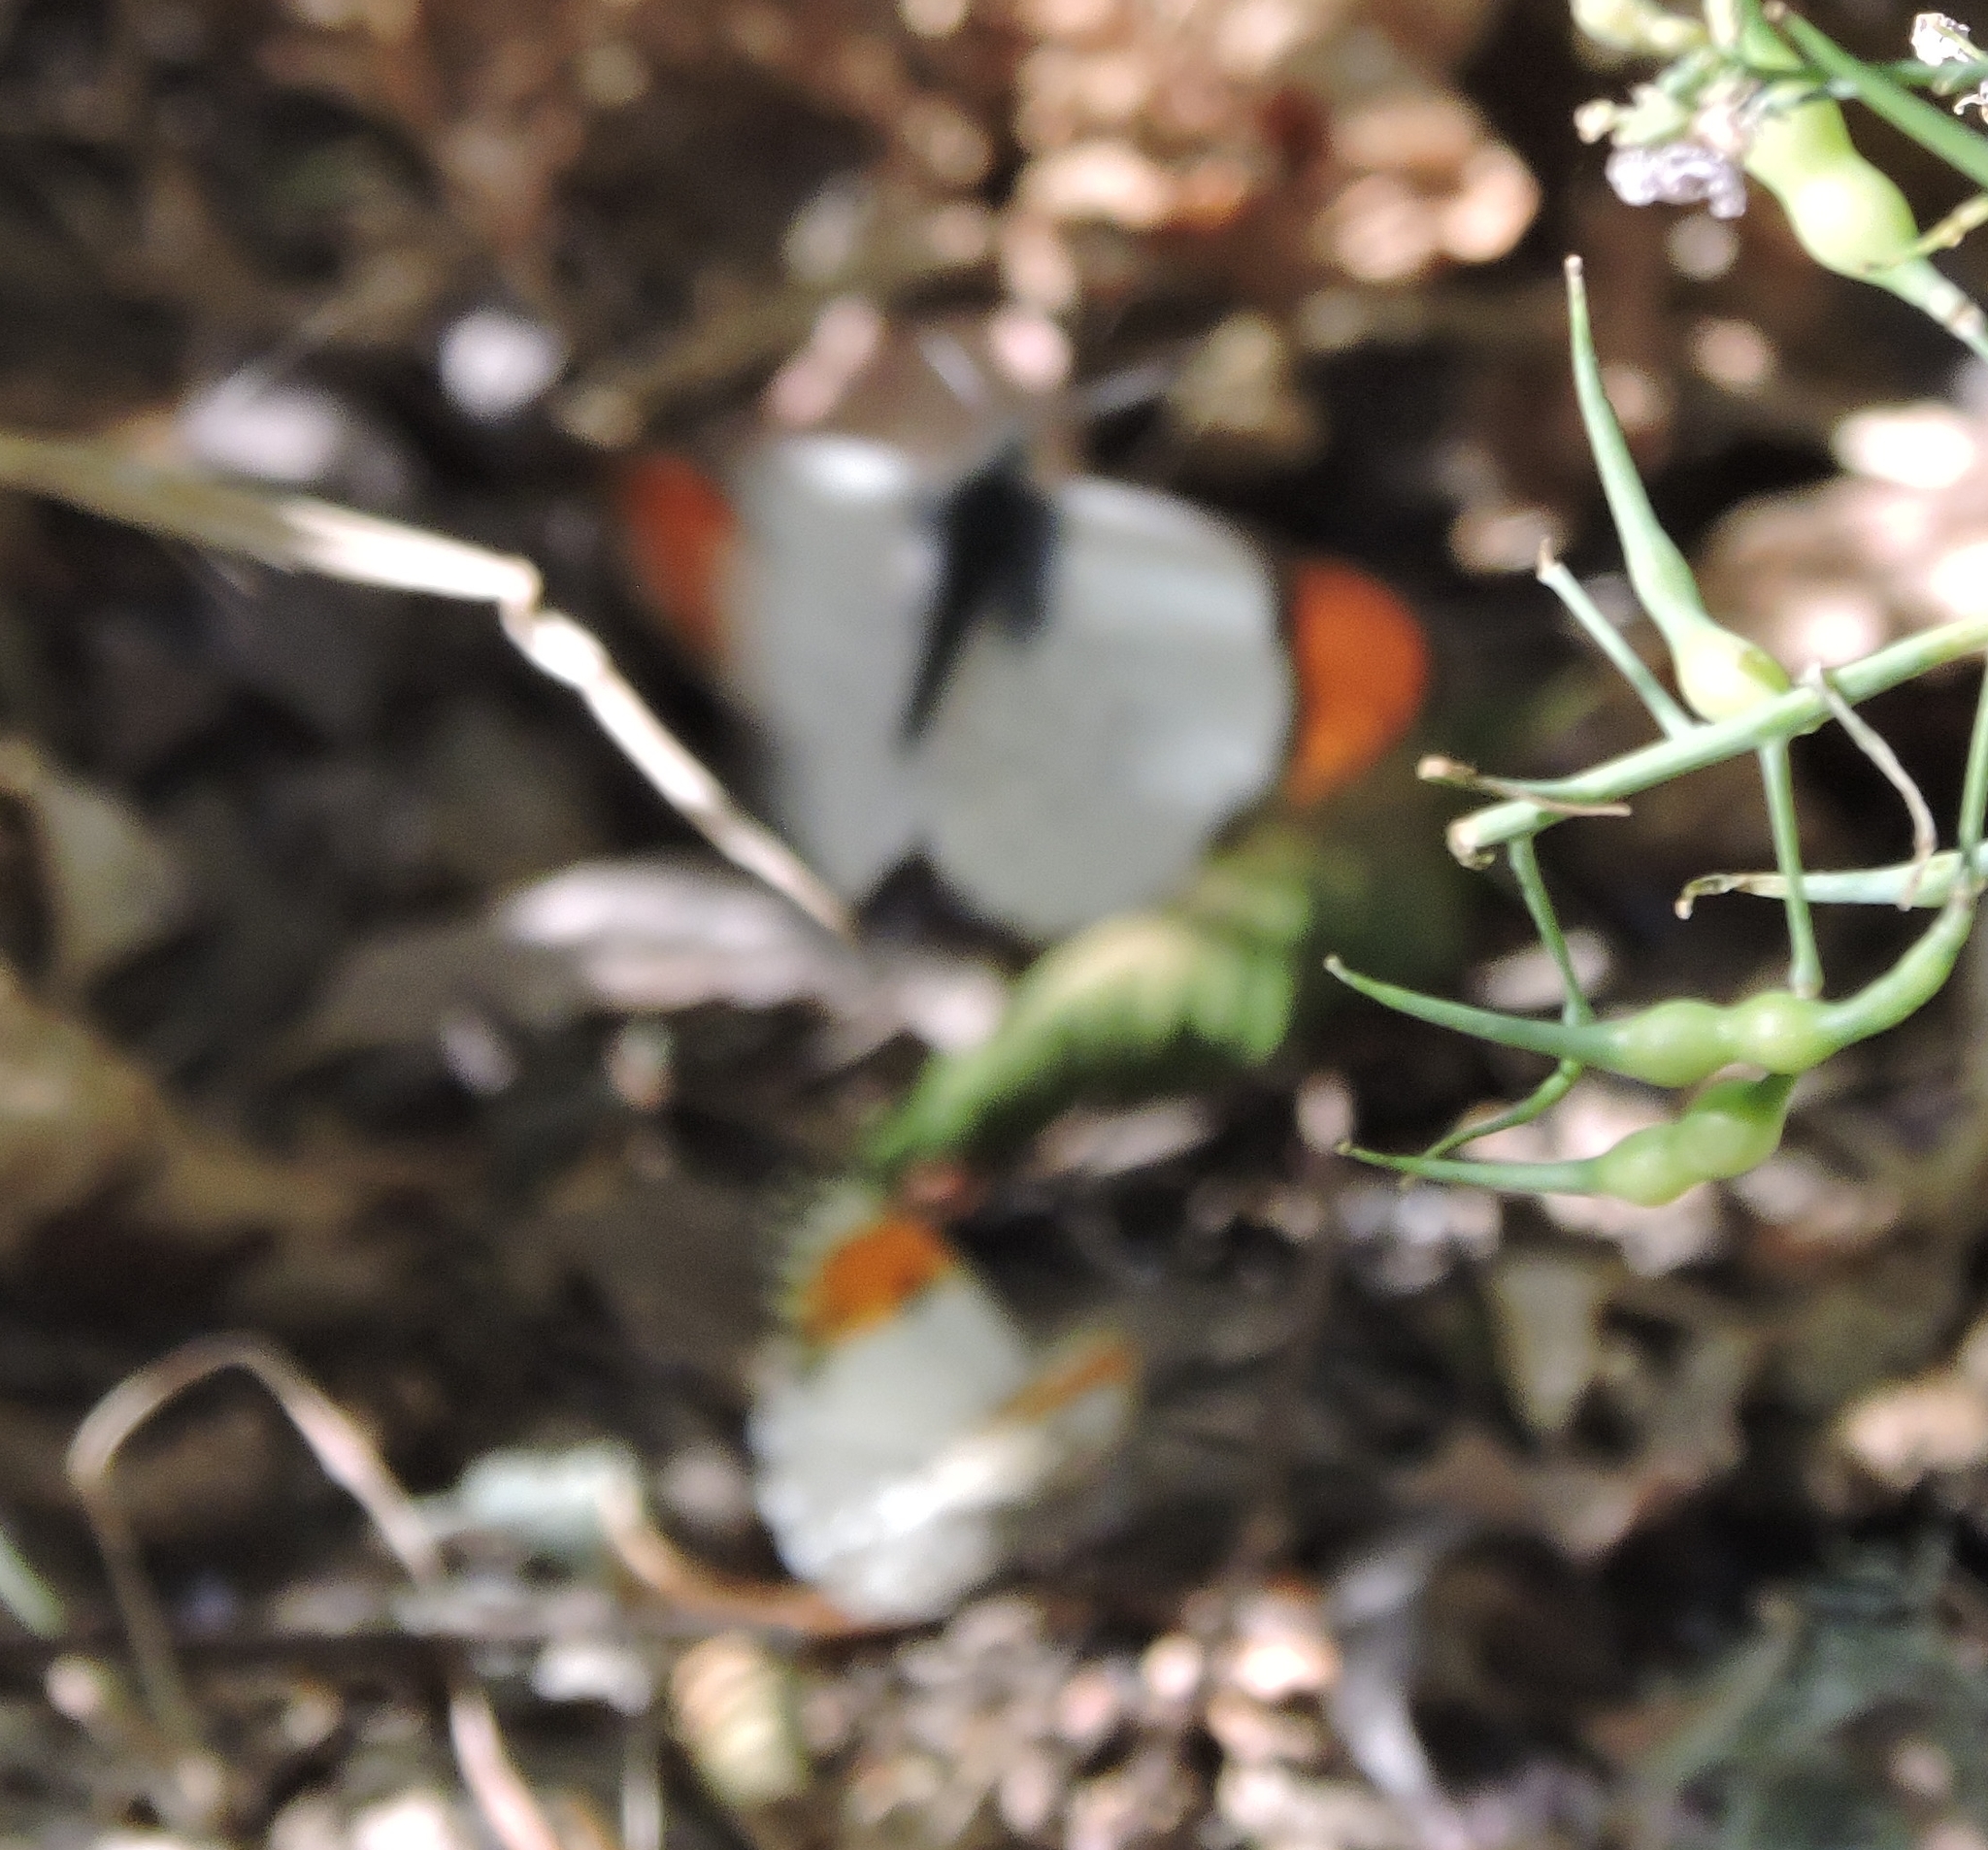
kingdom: Animalia
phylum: Arthropoda
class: Insecta
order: Lepidoptera
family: Pieridae
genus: Anthocharis
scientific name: Anthocharis sara
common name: Sara's orangetip
